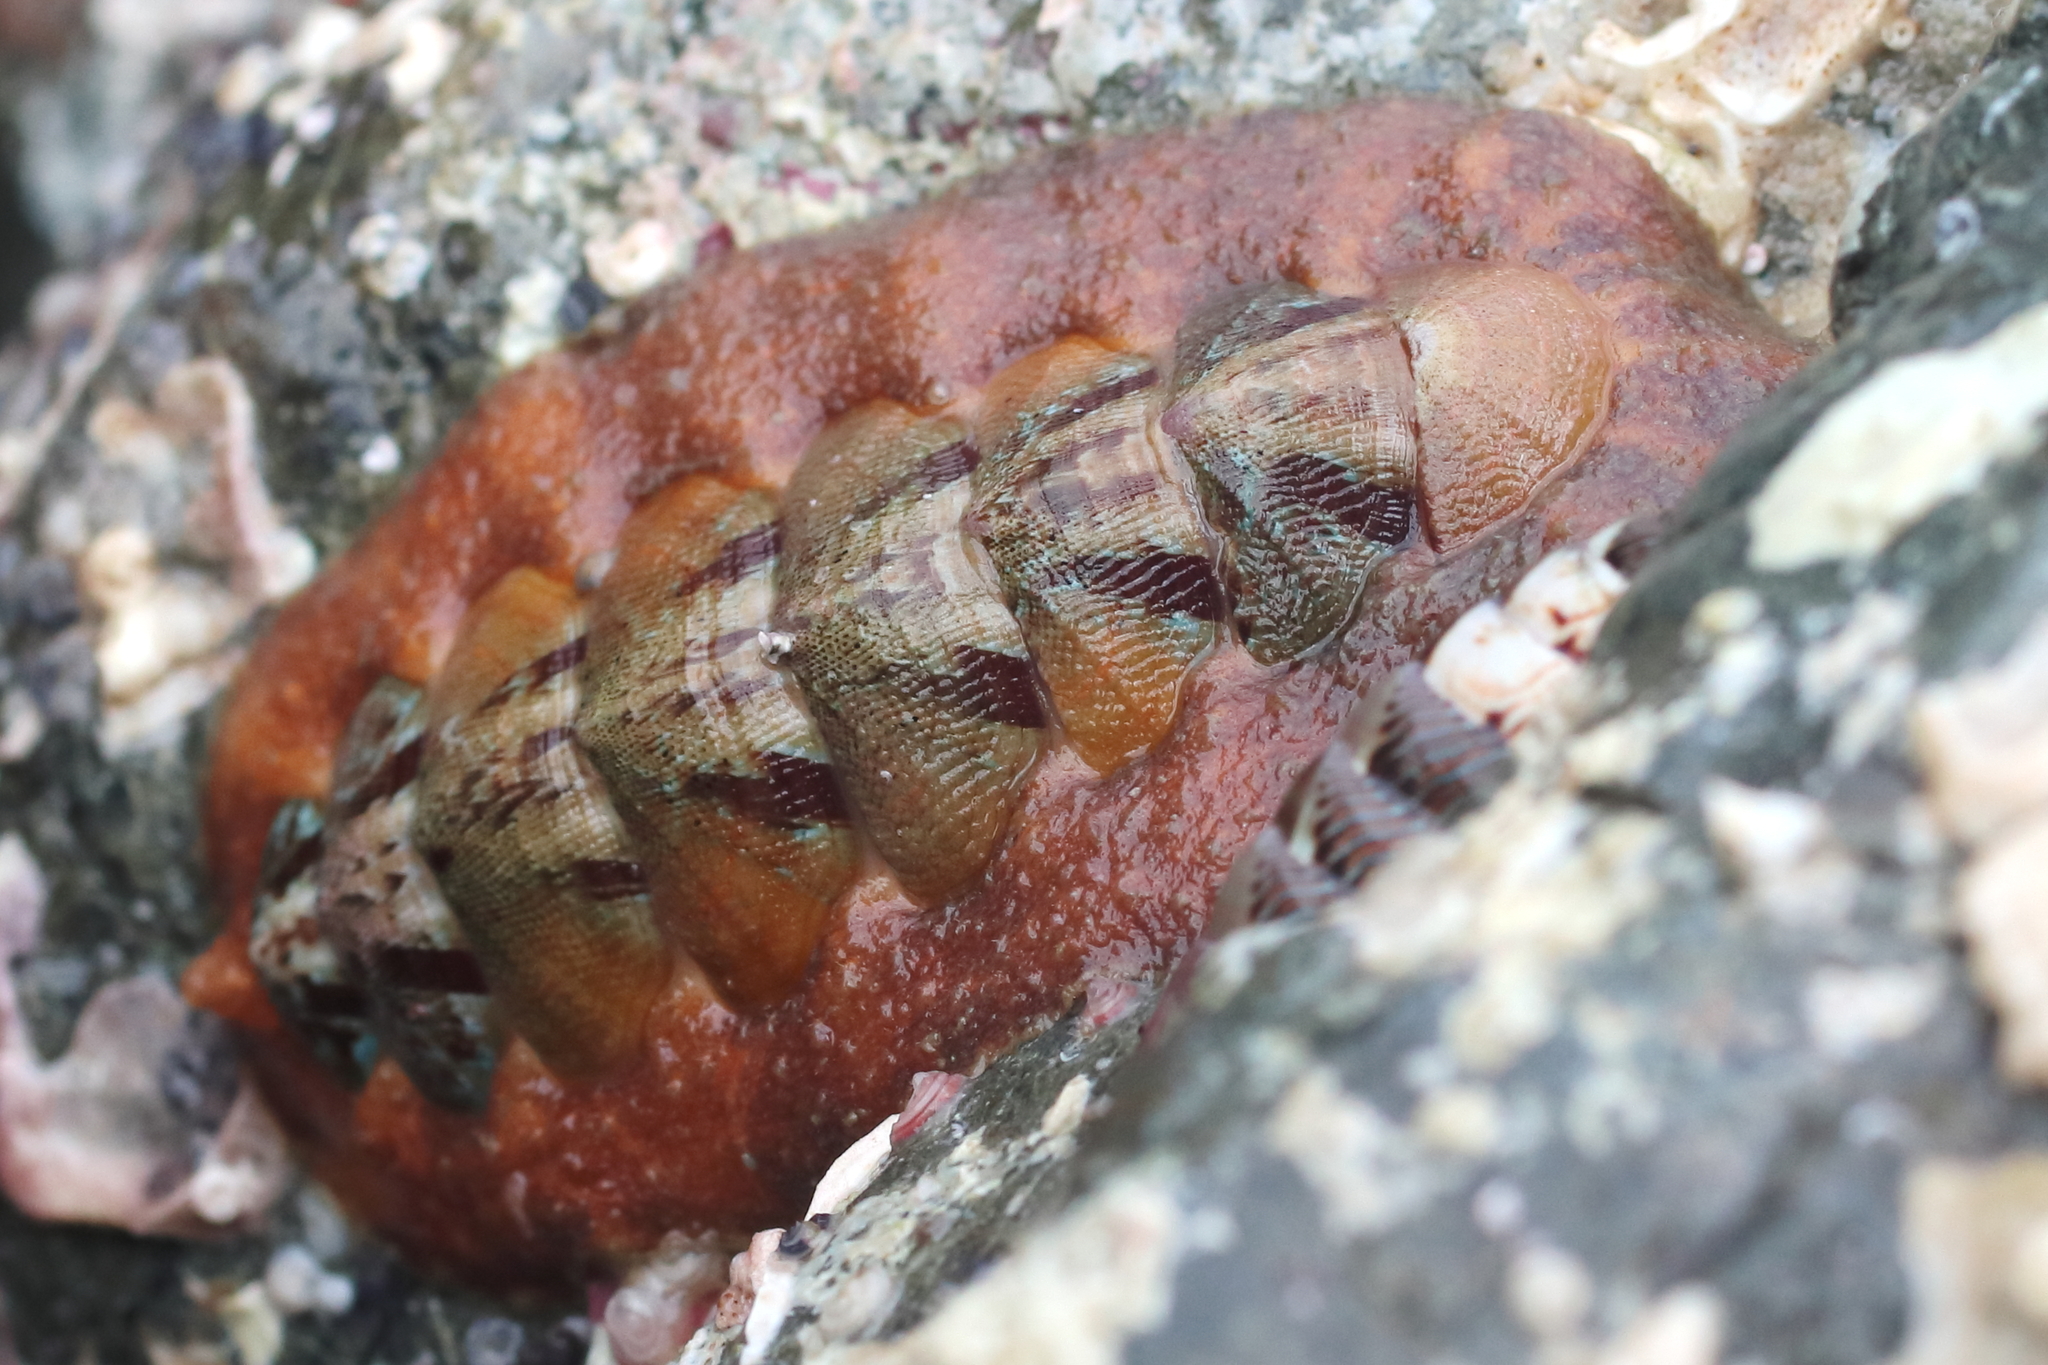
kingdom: Animalia
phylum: Mollusca
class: Polyplacophora
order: Chitonida
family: Mopaliidae
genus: Mopalia
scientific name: Mopalia swanii
